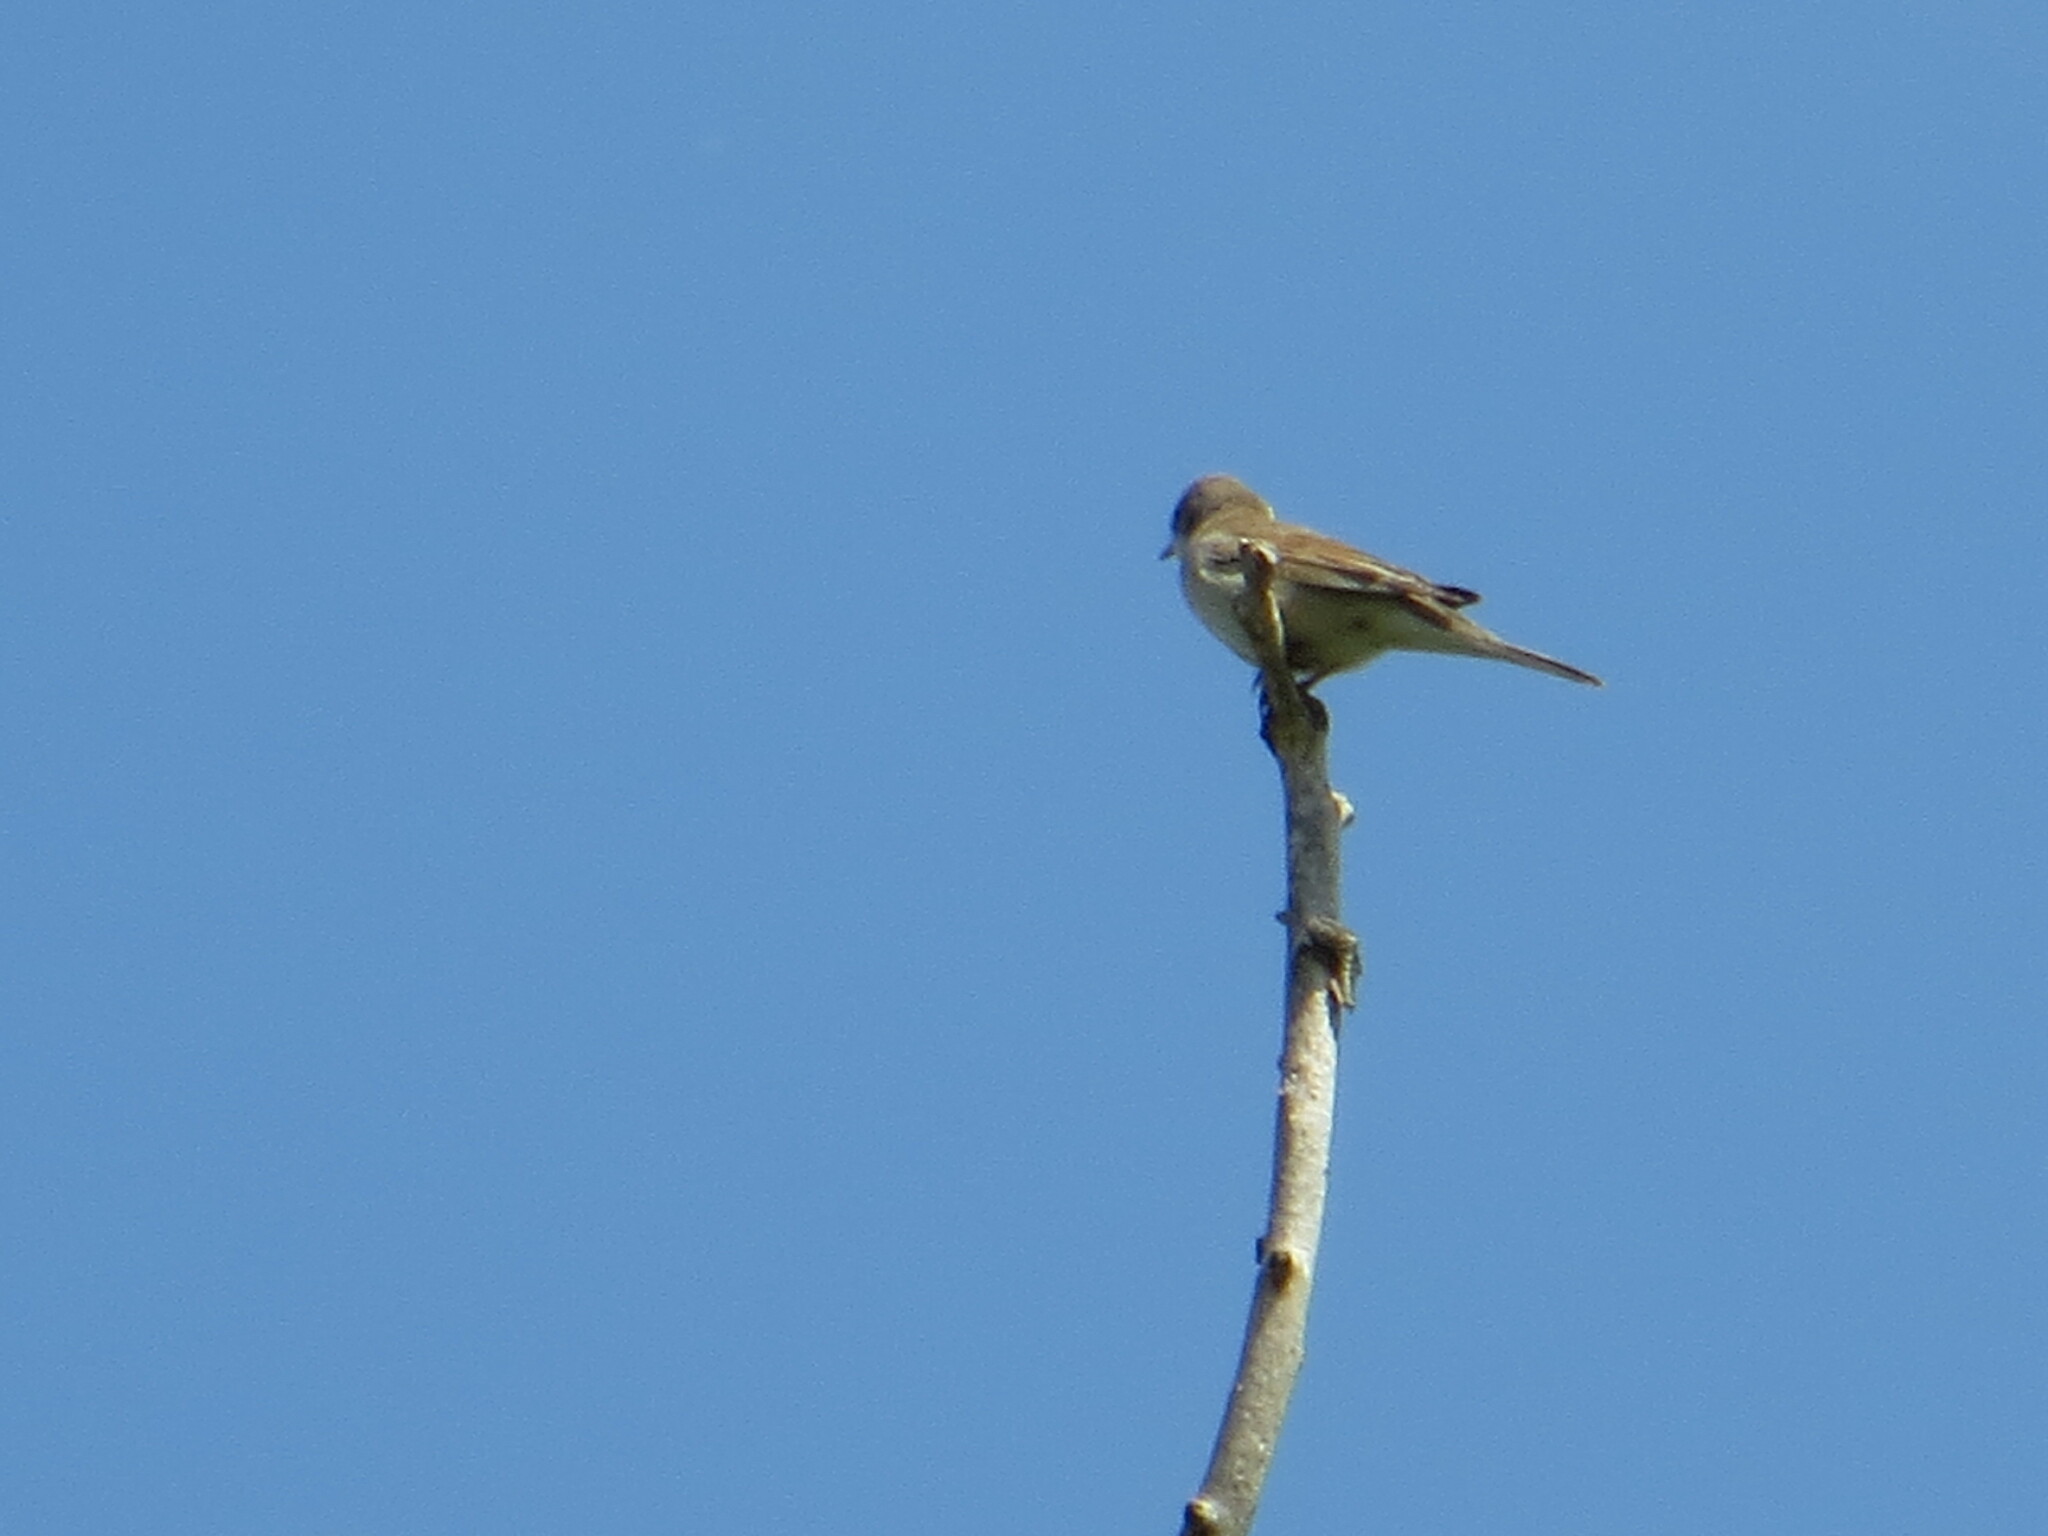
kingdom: Animalia
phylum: Chordata
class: Aves
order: Passeriformes
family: Sylviidae
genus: Sylvia
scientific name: Sylvia communis
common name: Common whitethroat
